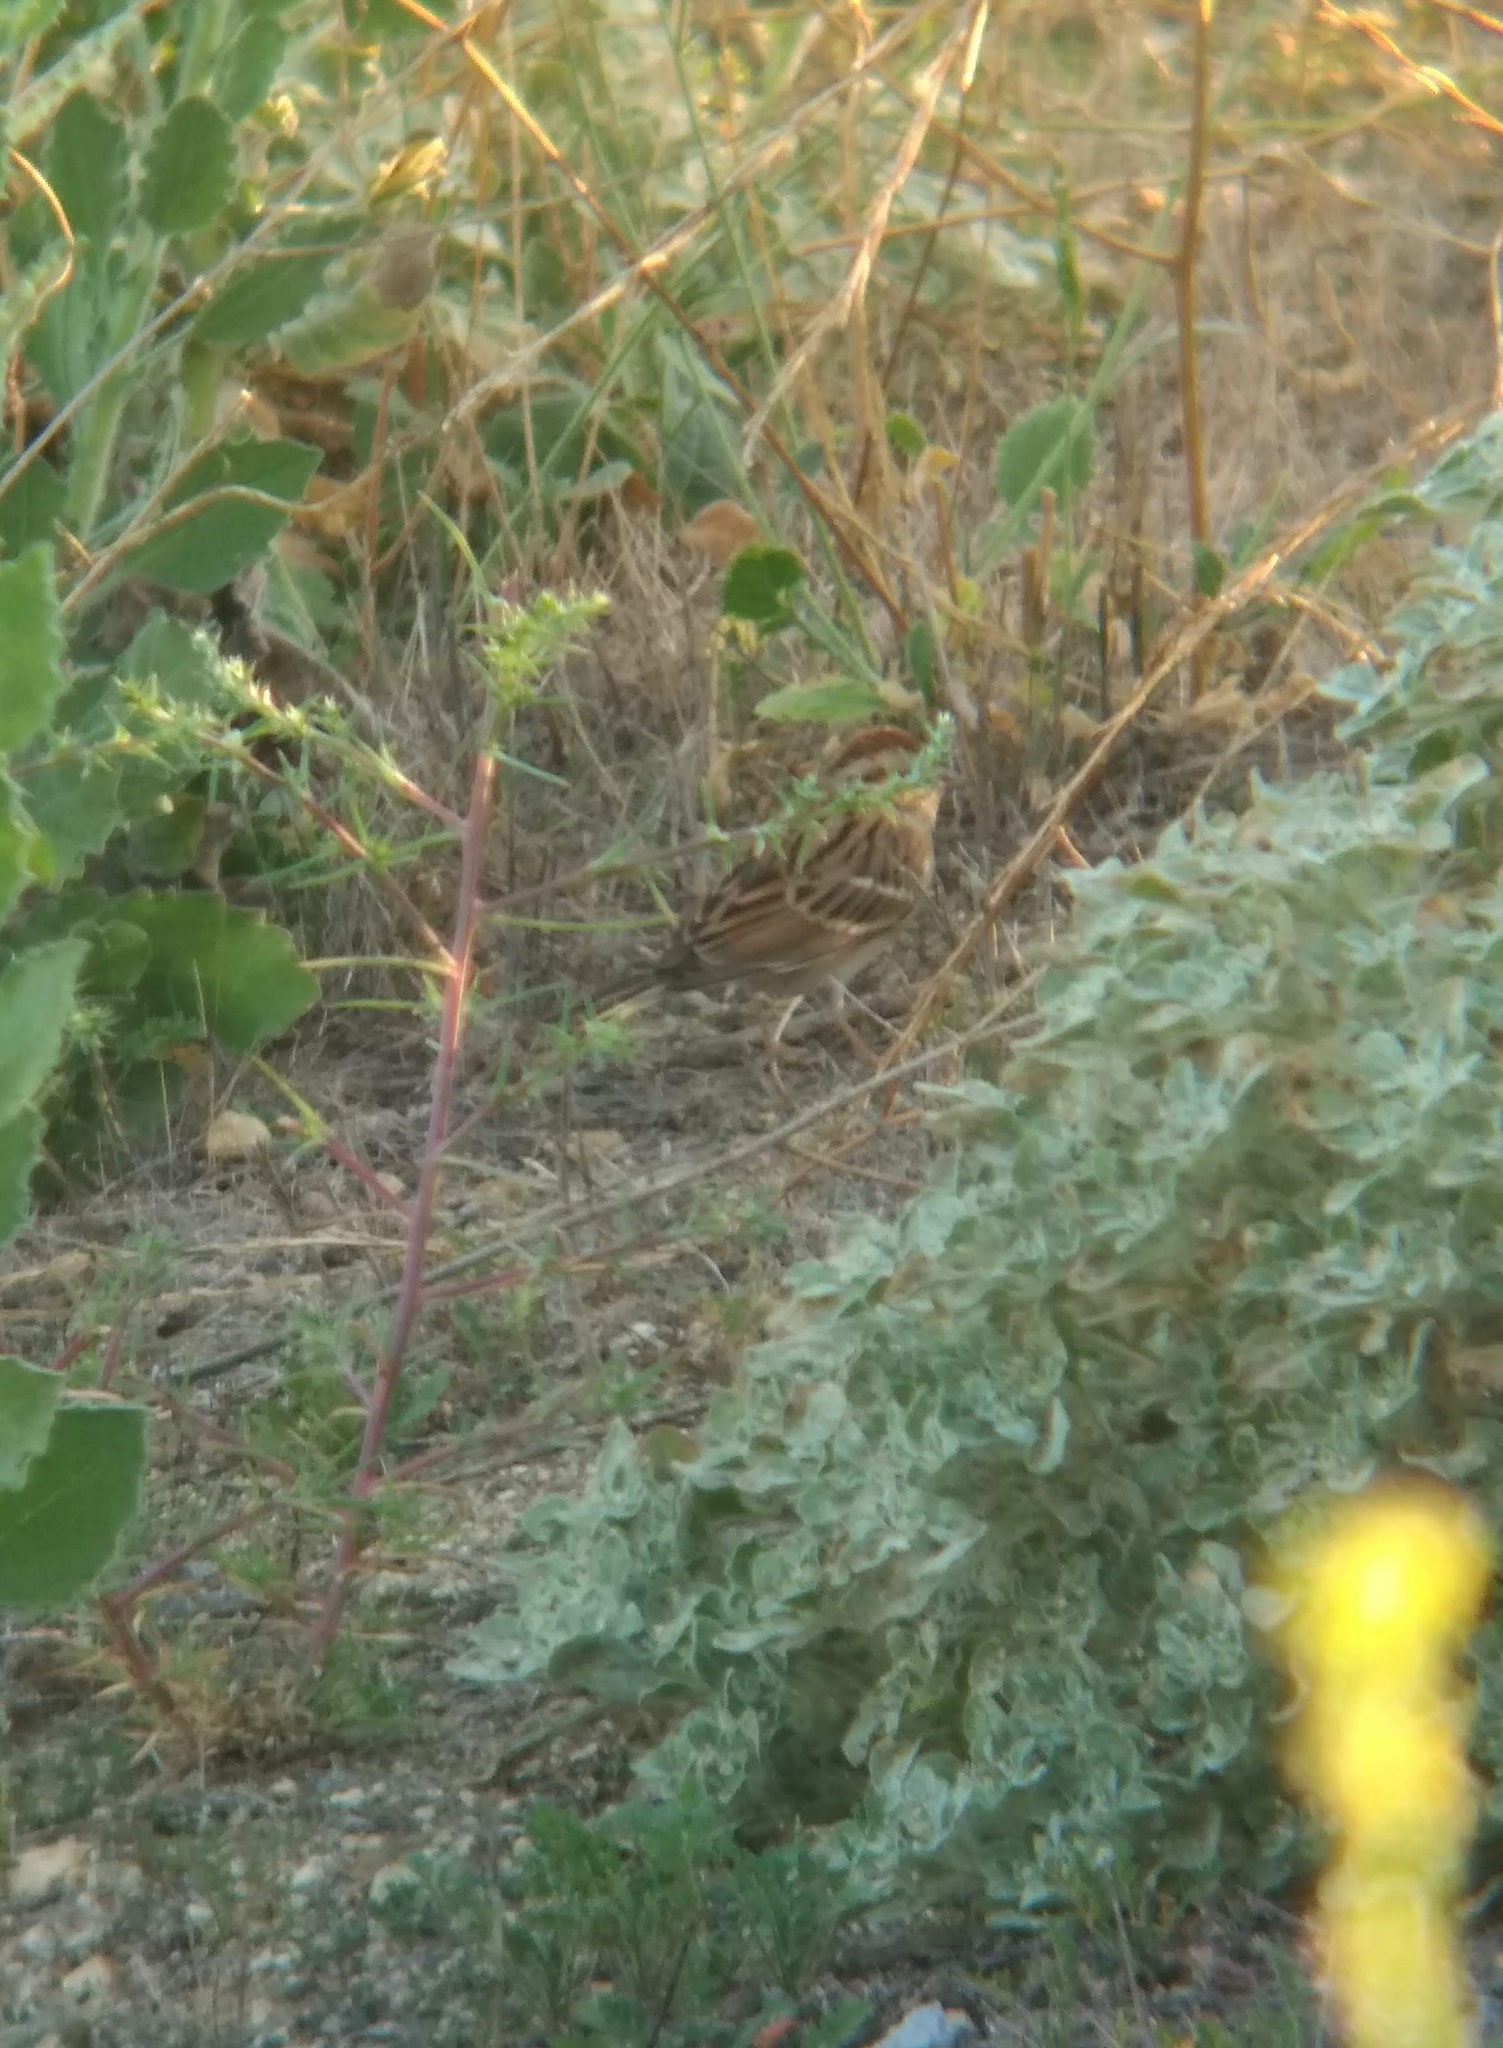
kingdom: Animalia
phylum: Chordata
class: Aves
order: Passeriformes
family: Passerellidae
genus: Spizella
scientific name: Spizella passerina
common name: Chipping sparrow
